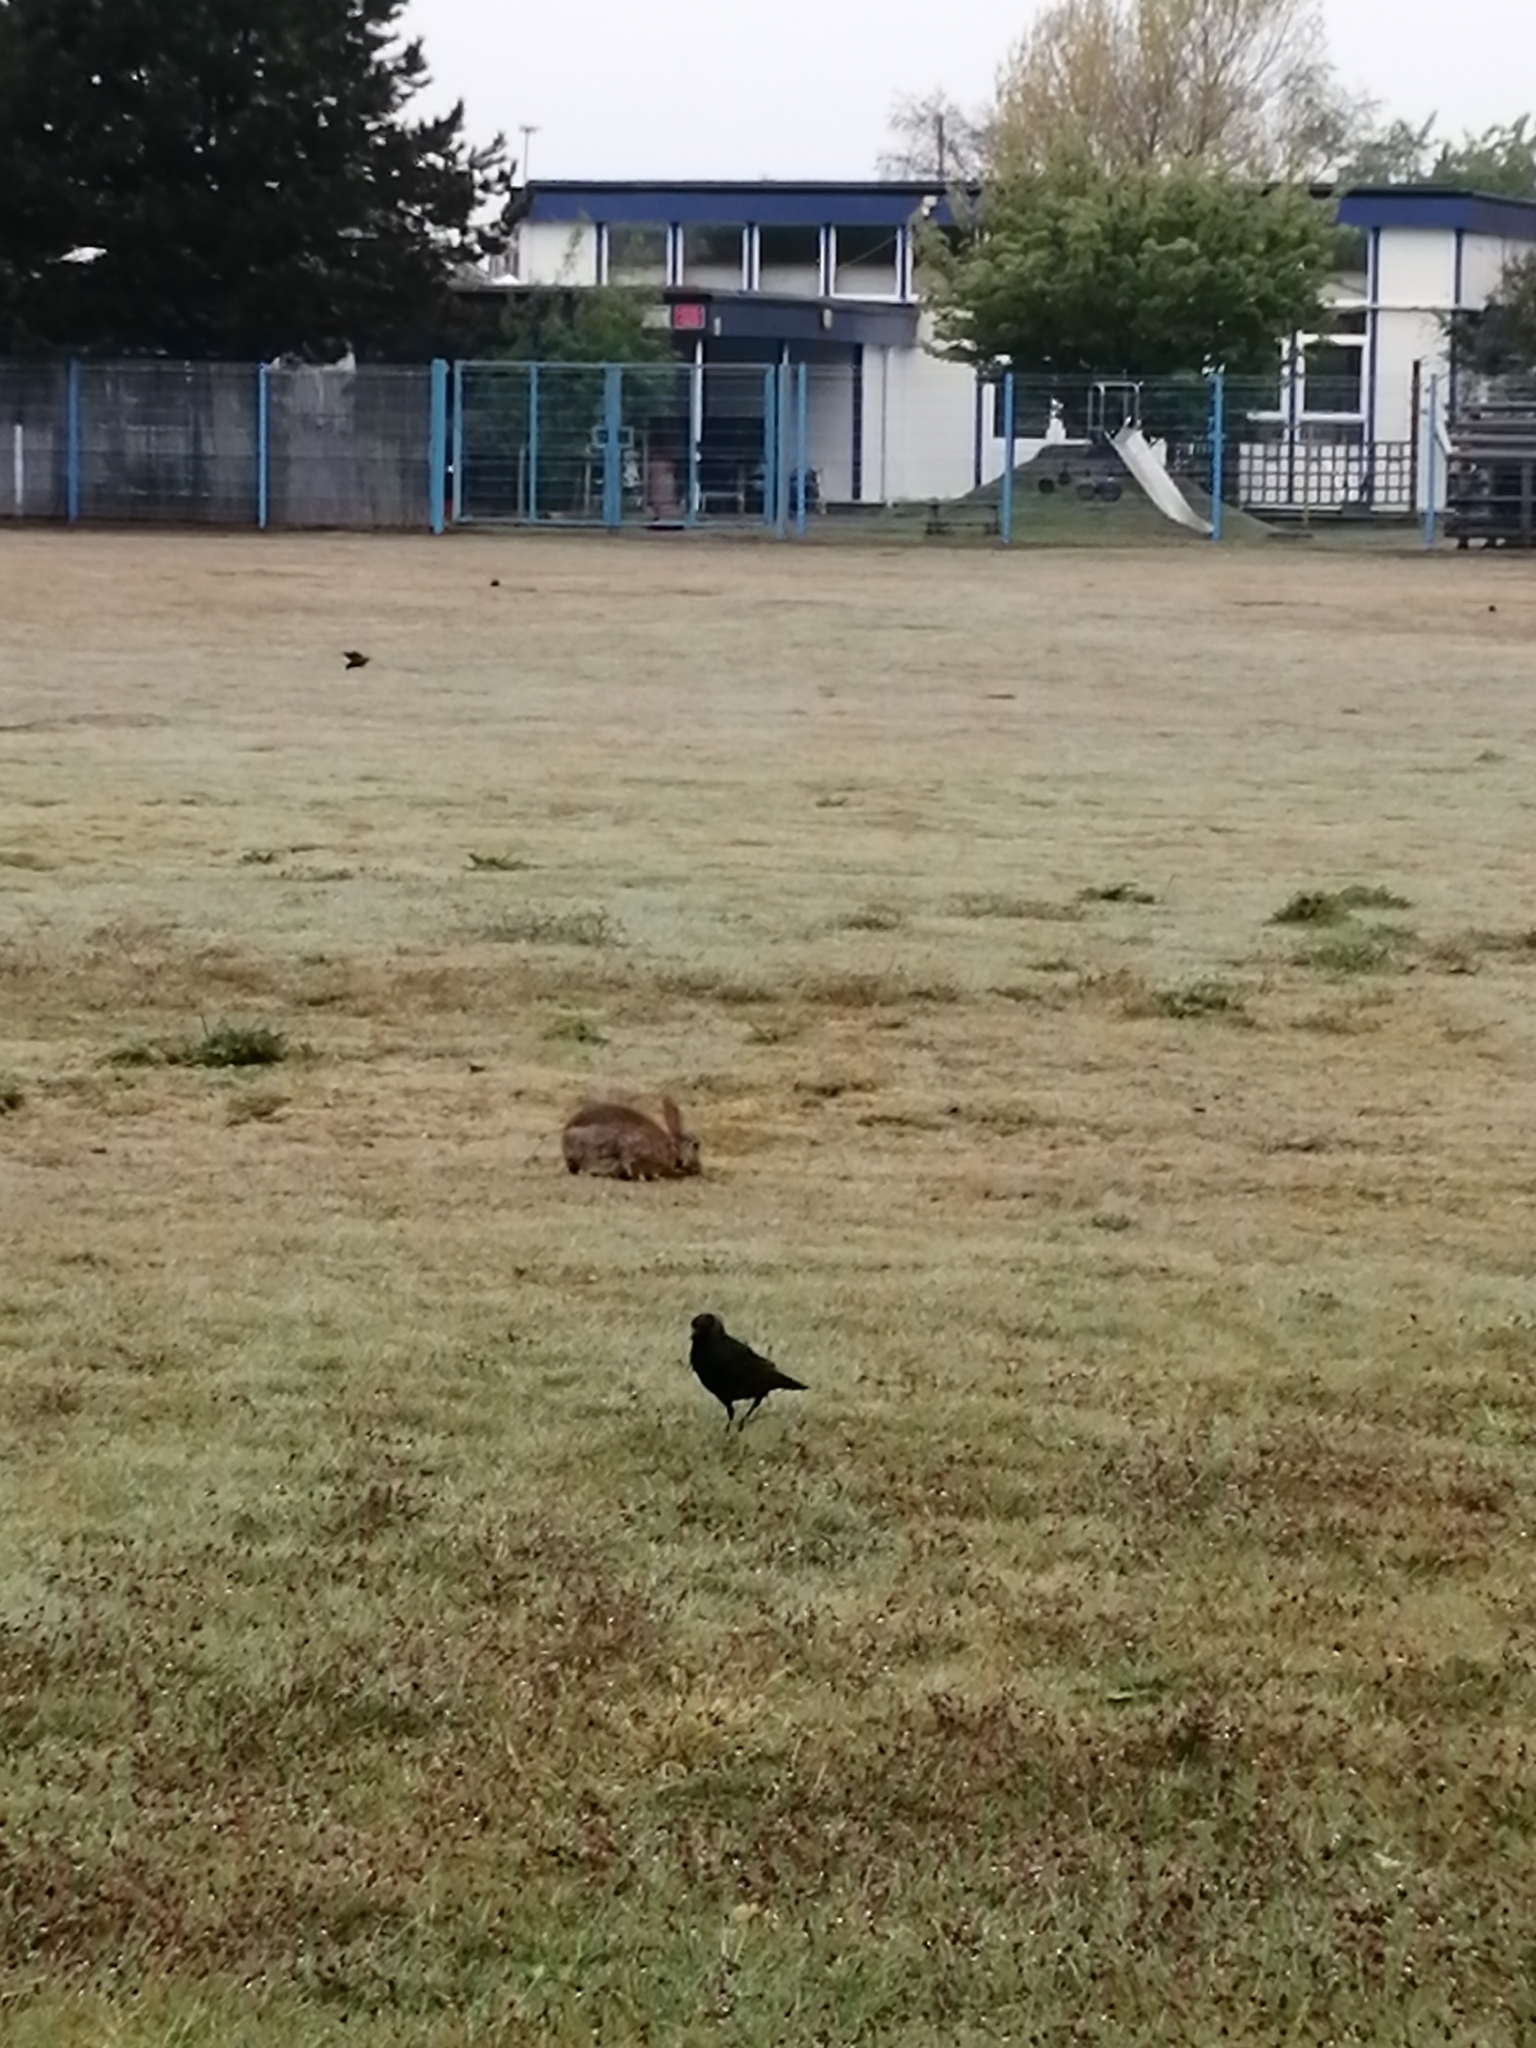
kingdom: Animalia
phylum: Chordata
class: Mammalia
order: Lagomorpha
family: Leporidae
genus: Oryctolagus
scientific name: Oryctolagus cuniculus
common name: European rabbit
